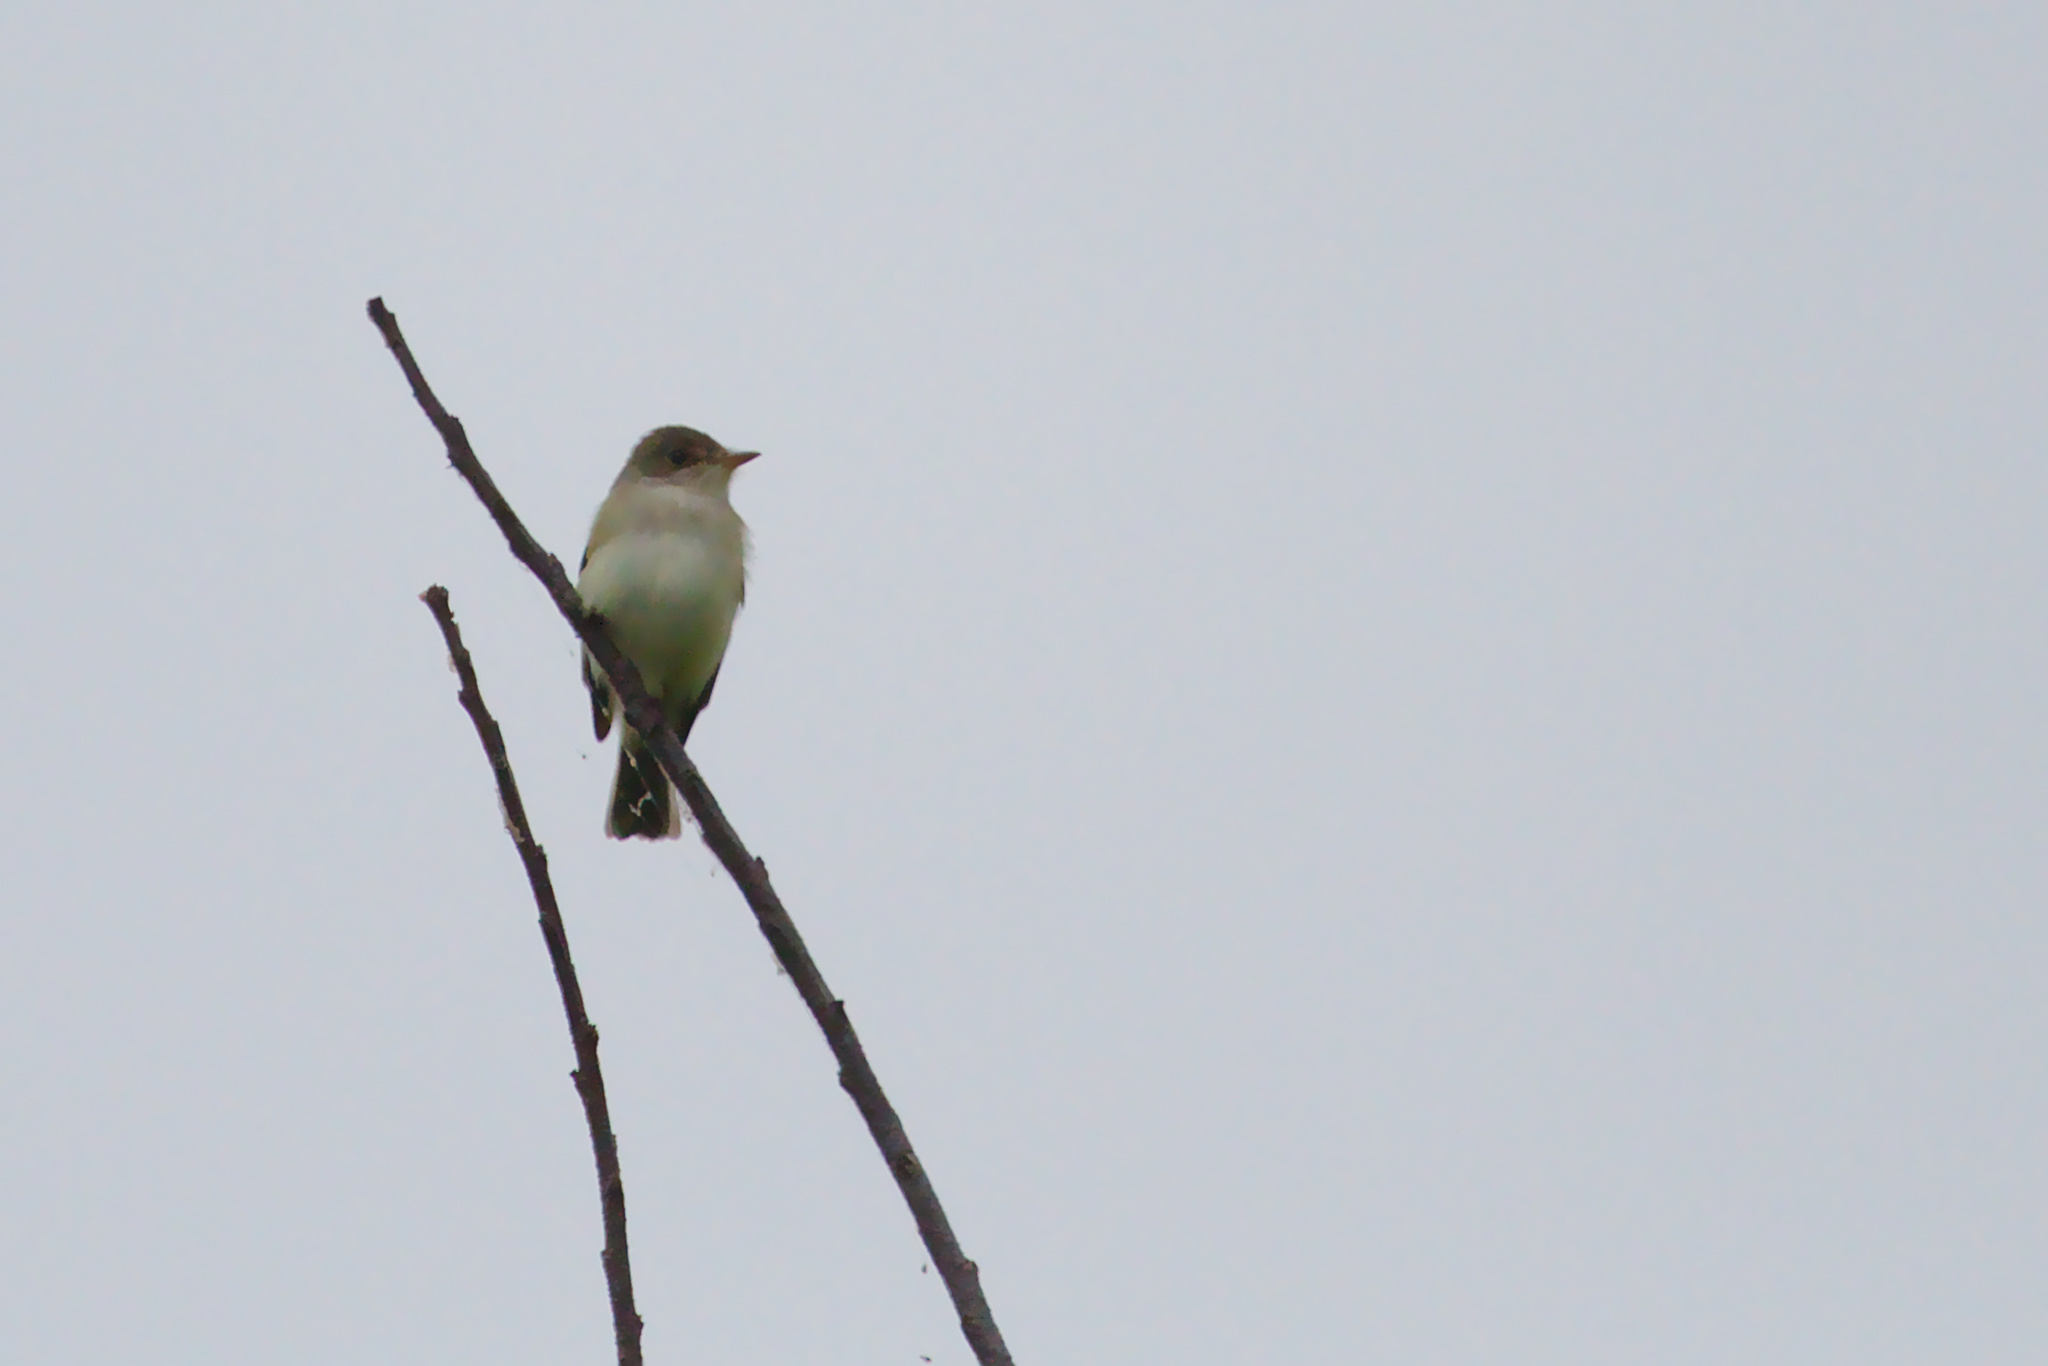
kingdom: Animalia
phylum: Chordata
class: Aves
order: Passeriformes
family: Tyrannidae
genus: Empidonax
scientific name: Empidonax traillii
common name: Willow flycatcher
